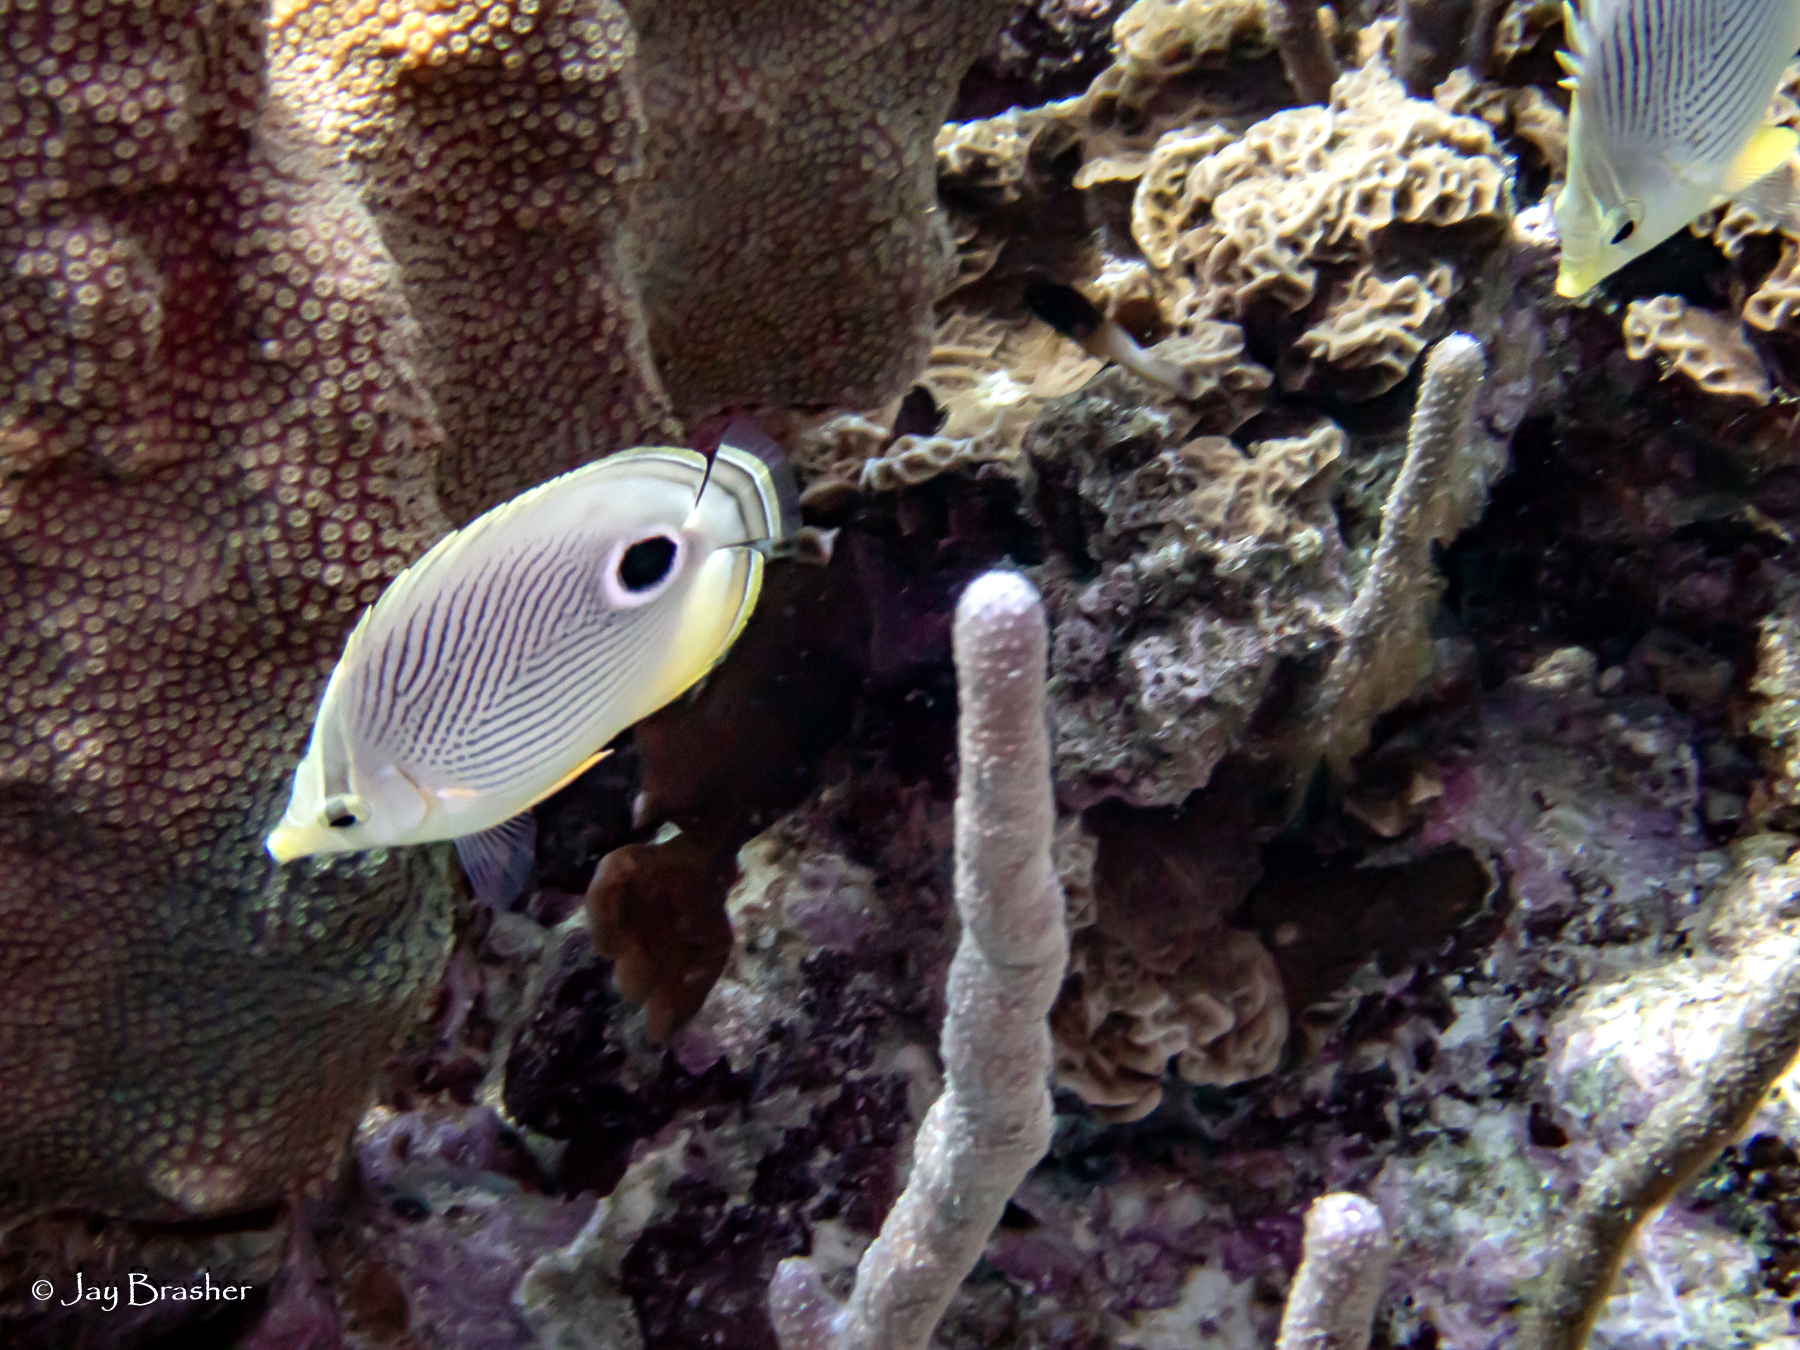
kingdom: Animalia
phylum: Chordata
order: Perciformes
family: Chaetodontidae
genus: Chaetodon
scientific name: Chaetodon capistratus
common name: Kete
